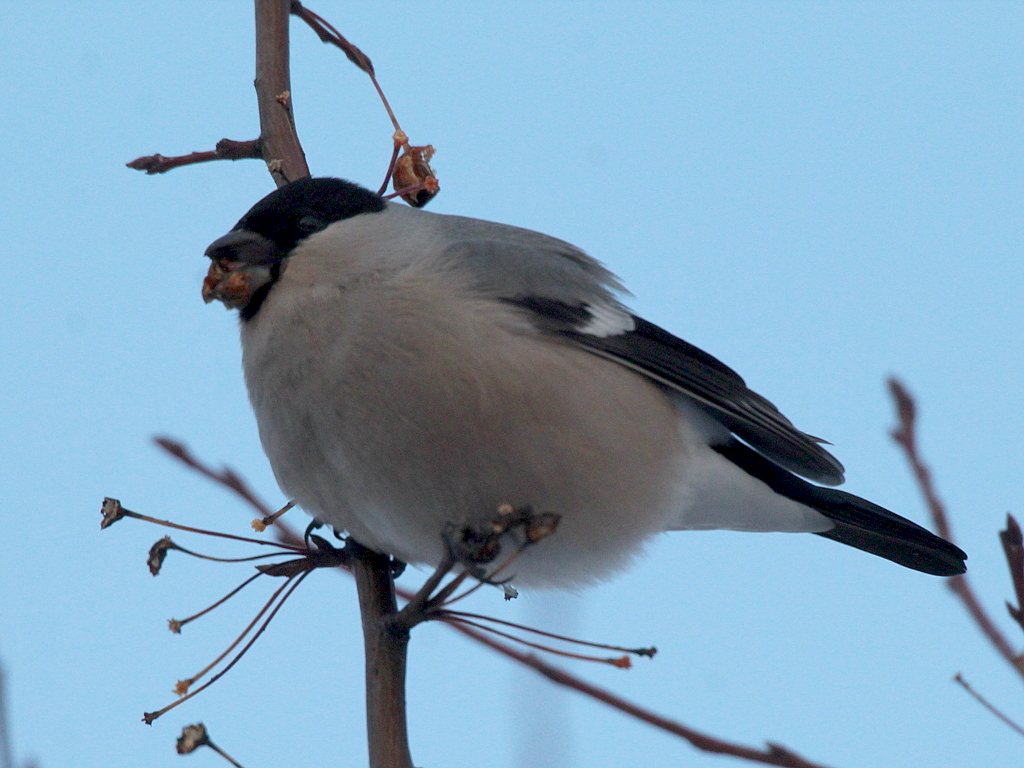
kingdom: Animalia
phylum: Chordata
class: Aves
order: Passeriformes
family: Fringillidae
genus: Pyrrhula
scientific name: Pyrrhula pyrrhula
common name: Eurasian bullfinch
